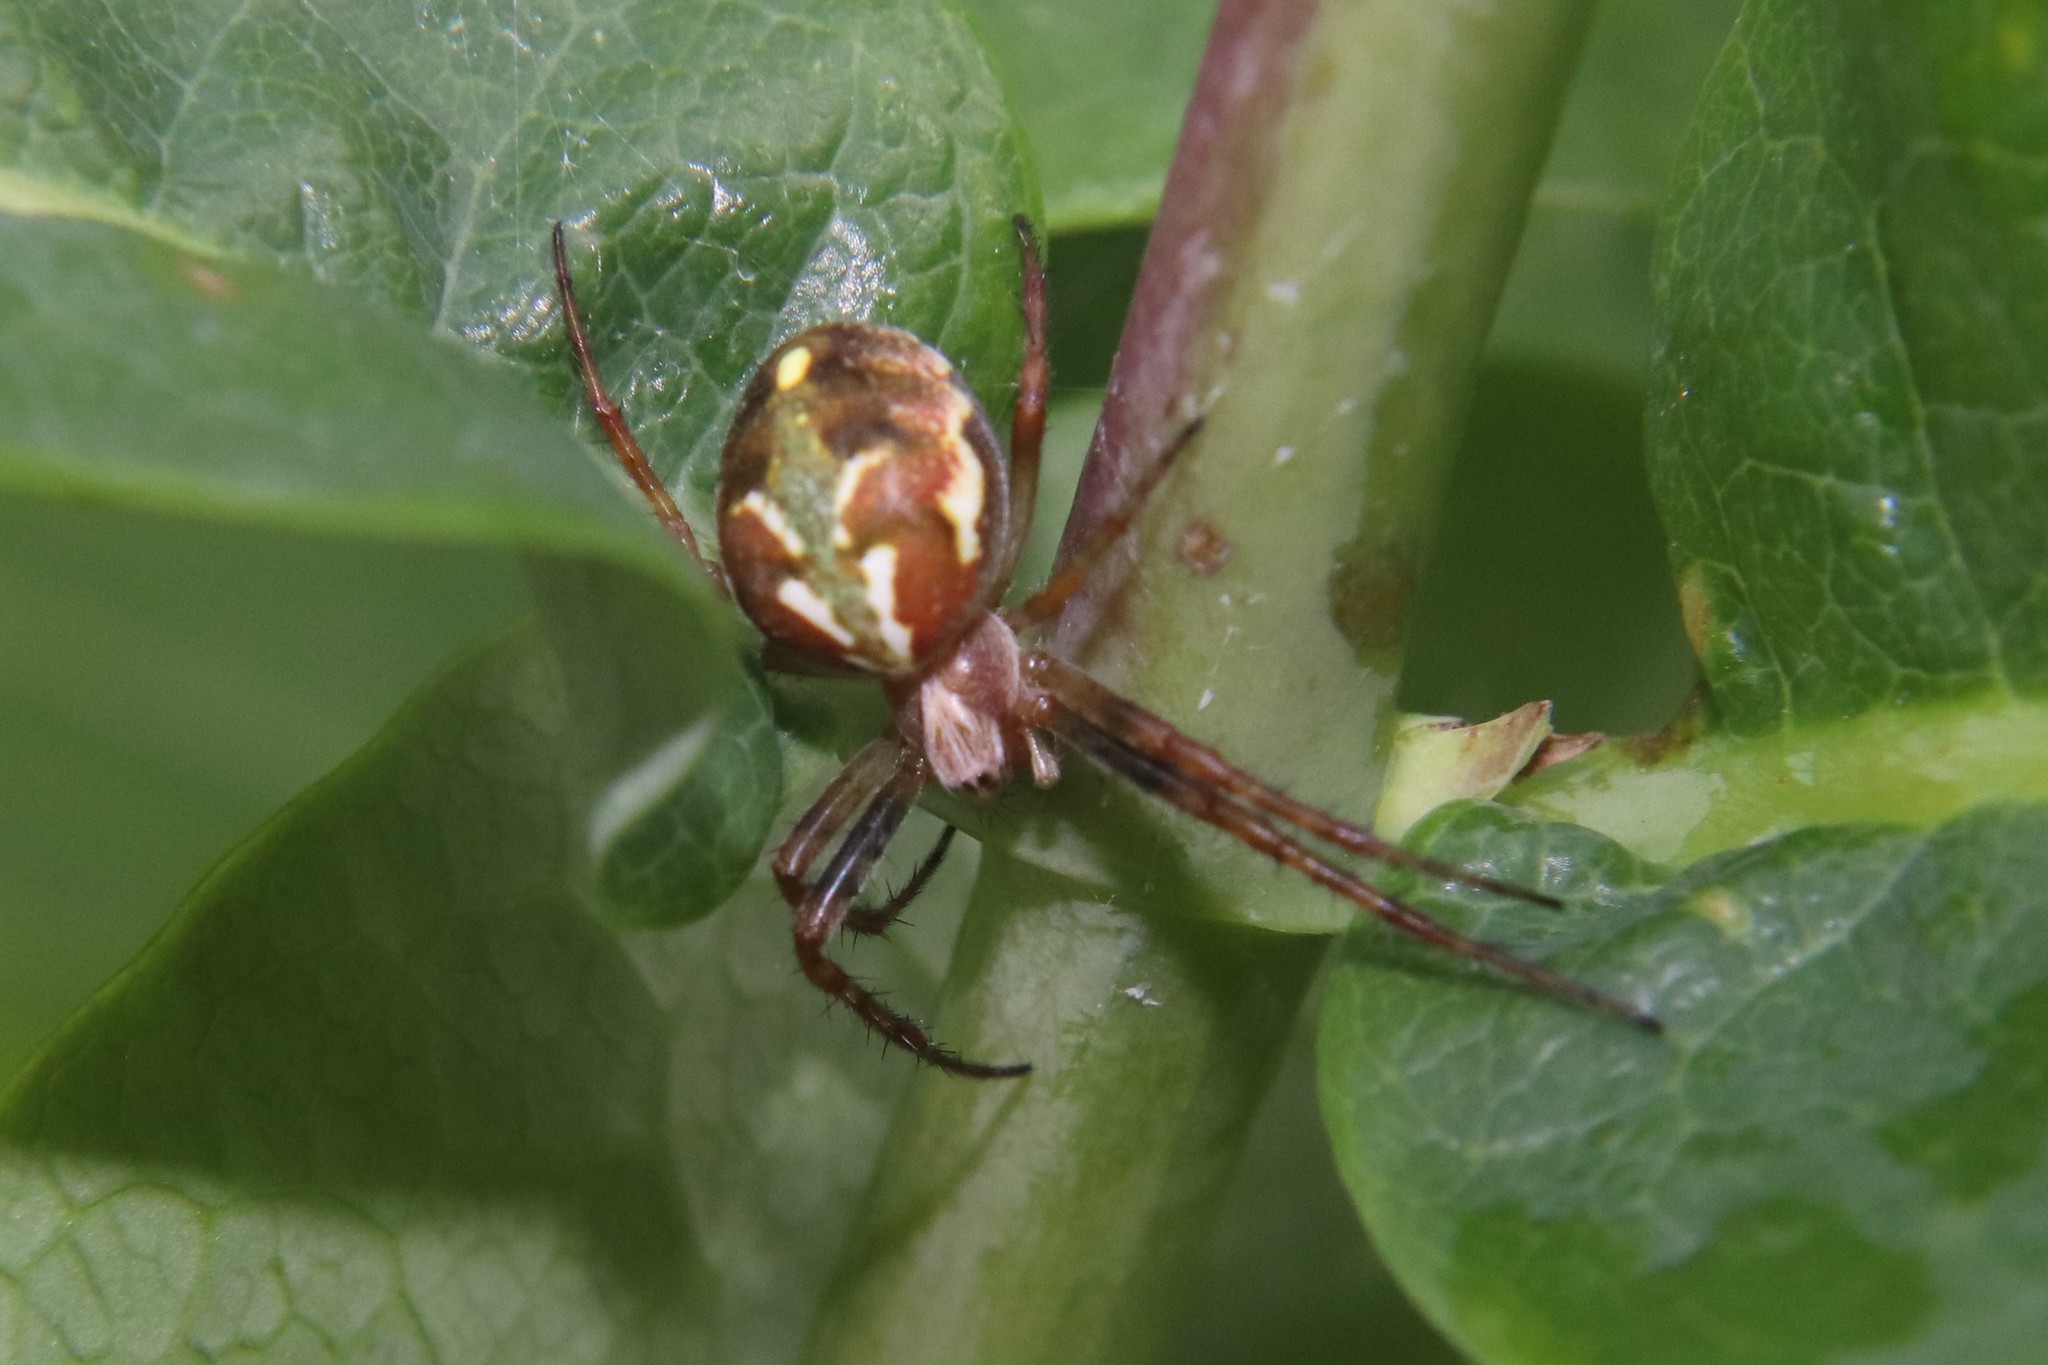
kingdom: Animalia
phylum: Arthropoda
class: Arachnida
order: Araneae
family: Araneidae
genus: Novaranea
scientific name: Novaranea queribunda
